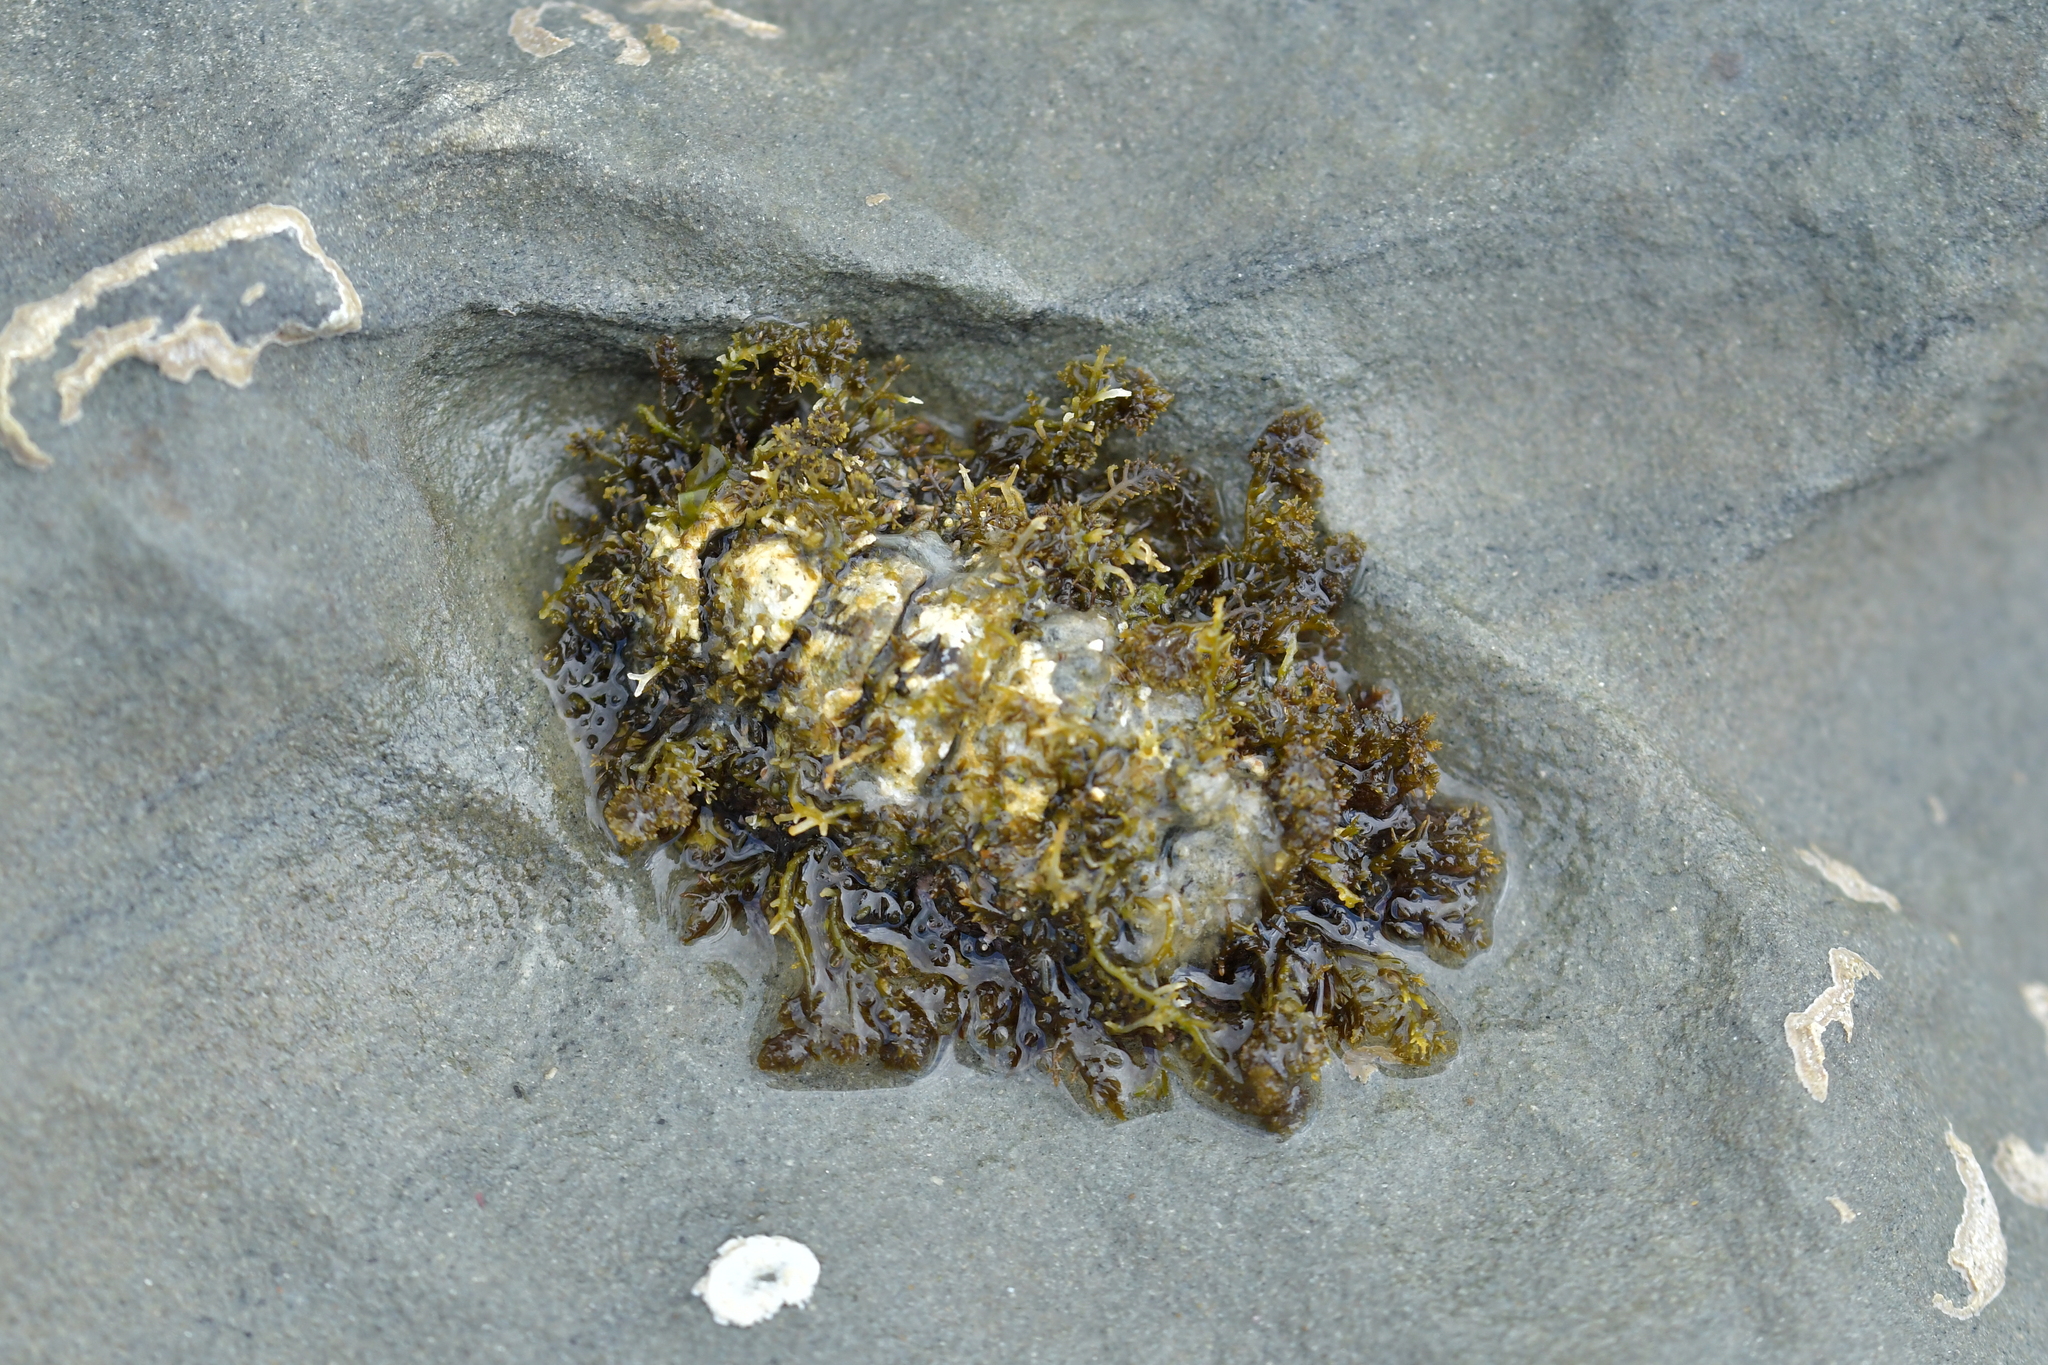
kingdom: Animalia
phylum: Mollusca
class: Polyplacophora
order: Chitonida
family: Mopaliidae
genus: Plaxiphora
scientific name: Plaxiphora caelata
